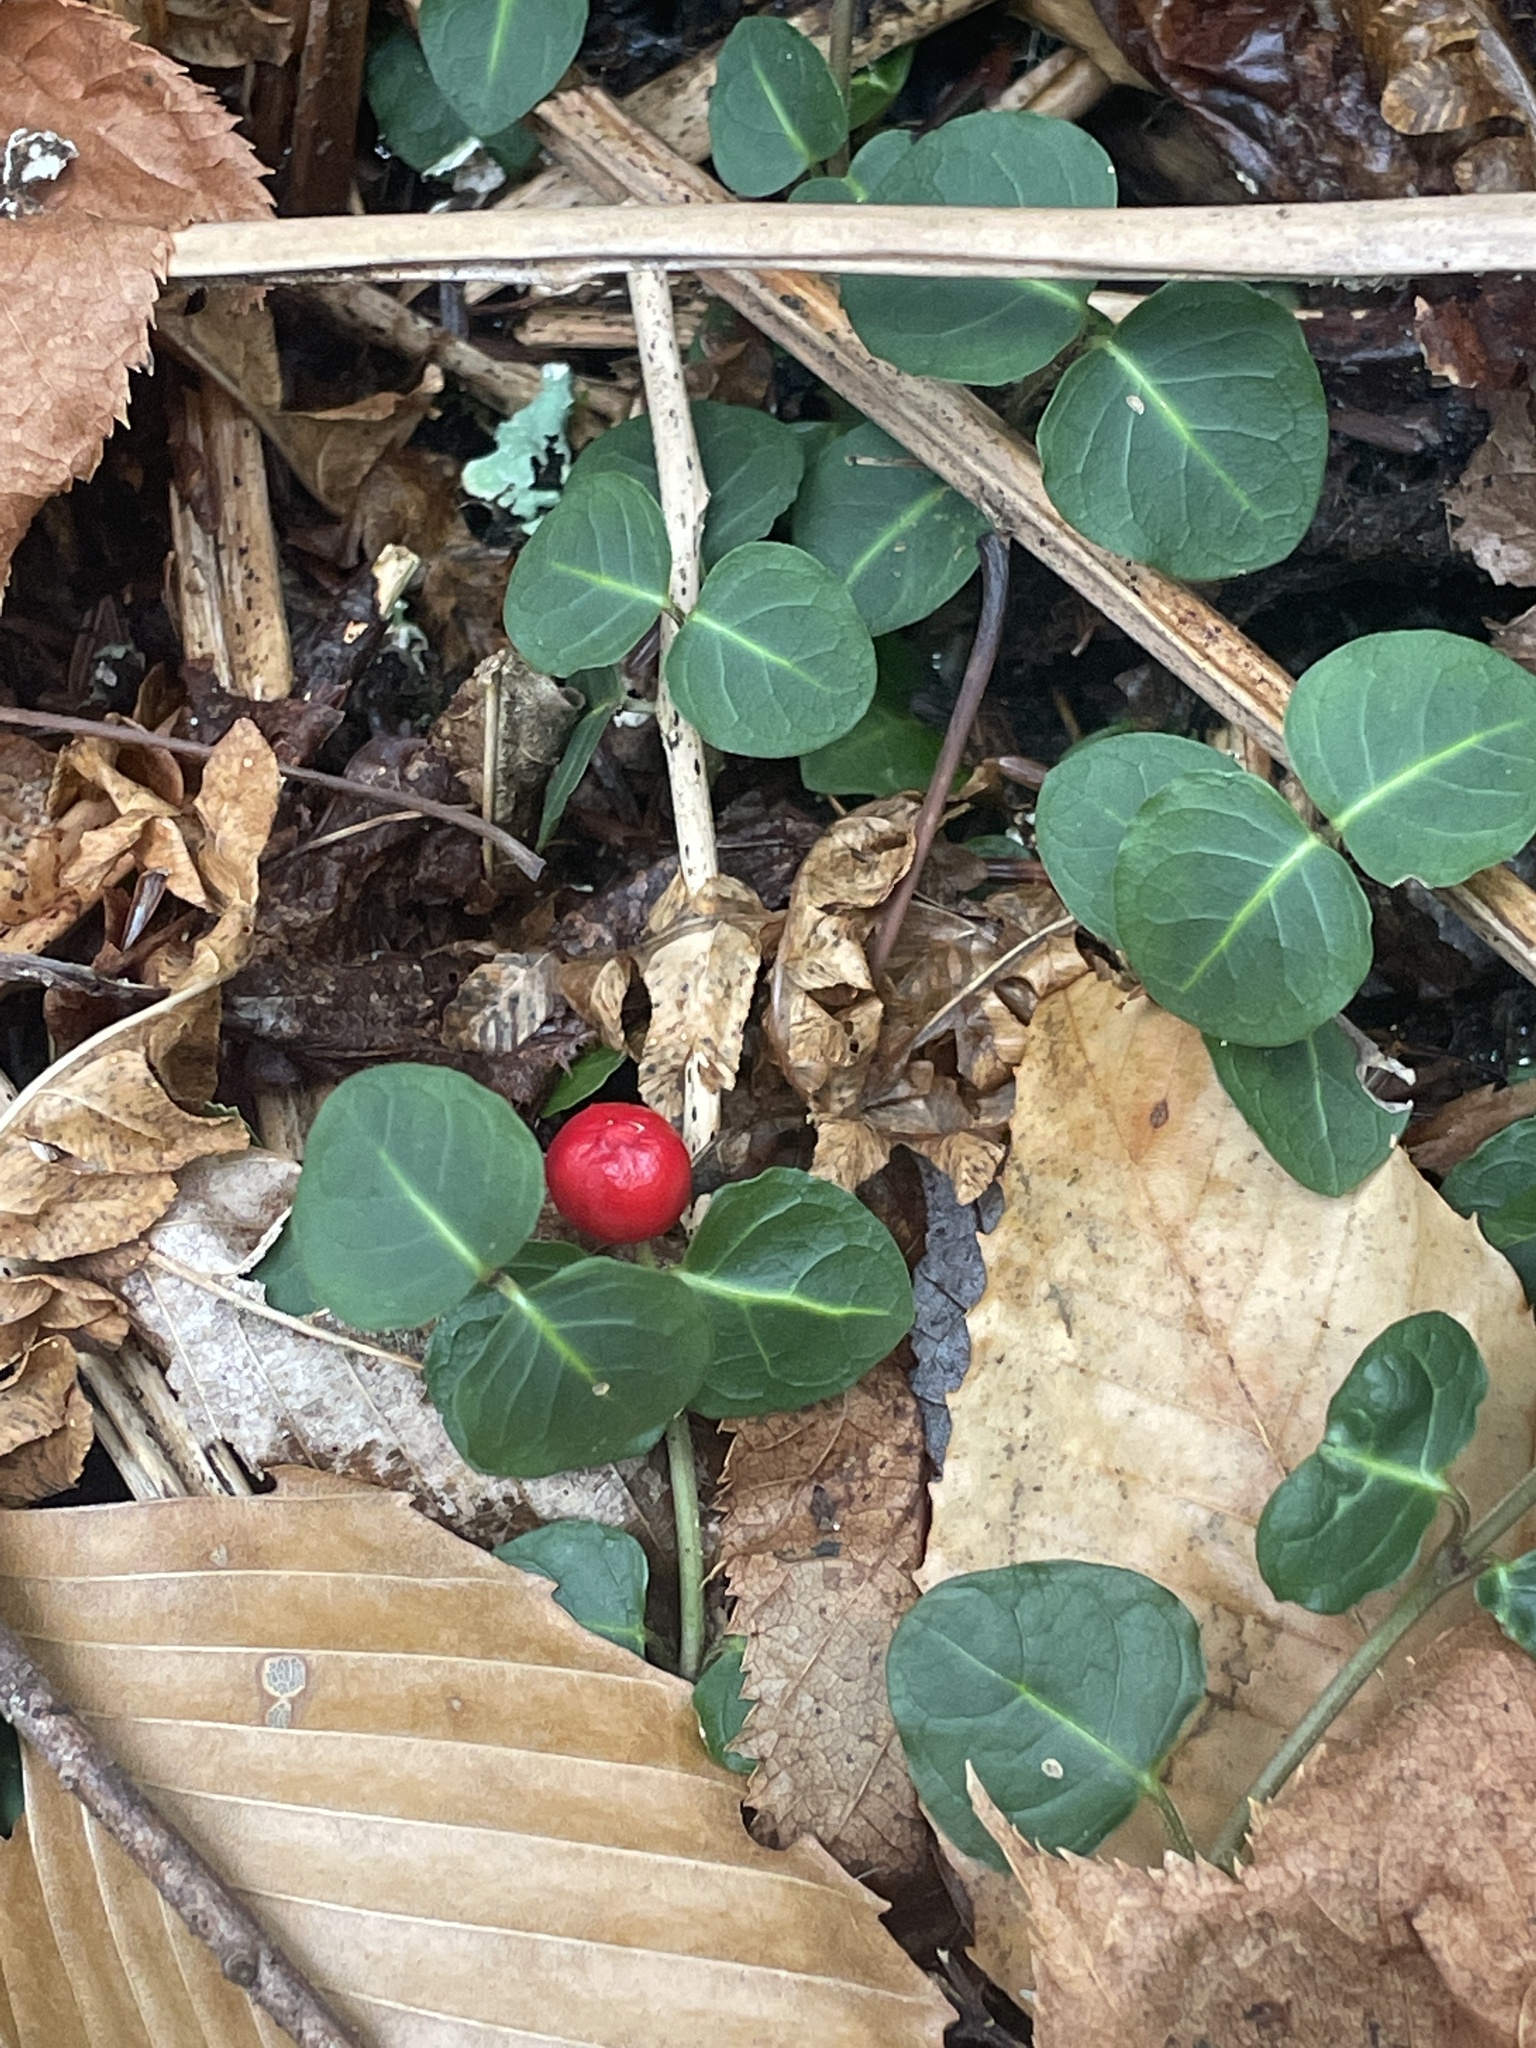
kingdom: Plantae
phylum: Tracheophyta
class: Magnoliopsida
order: Gentianales
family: Rubiaceae
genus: Mitchella
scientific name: Mitchella repens
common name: Partridge-berry
